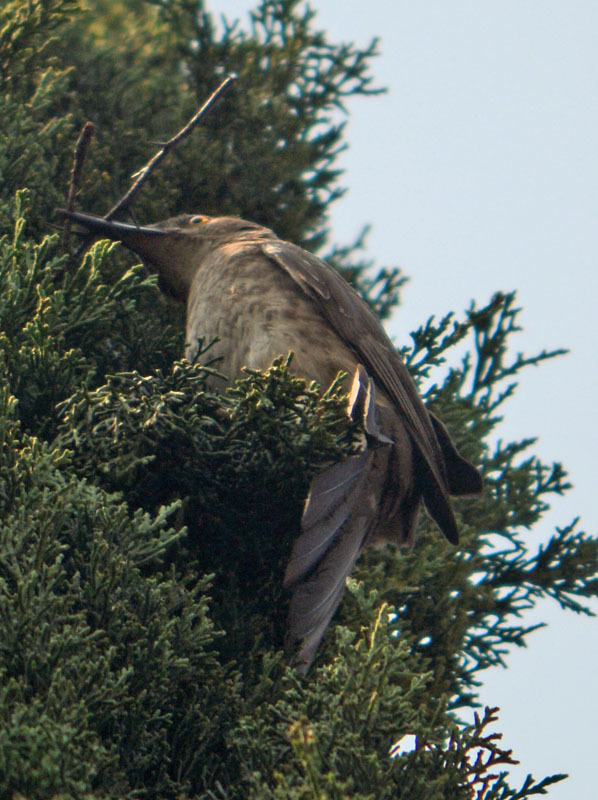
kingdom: Animalia
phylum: Chordata
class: Aves
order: Passeriformes
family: Mimidae
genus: Toxostoma
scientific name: Toxostoma curvirostre
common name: Curve-billed thrasher
